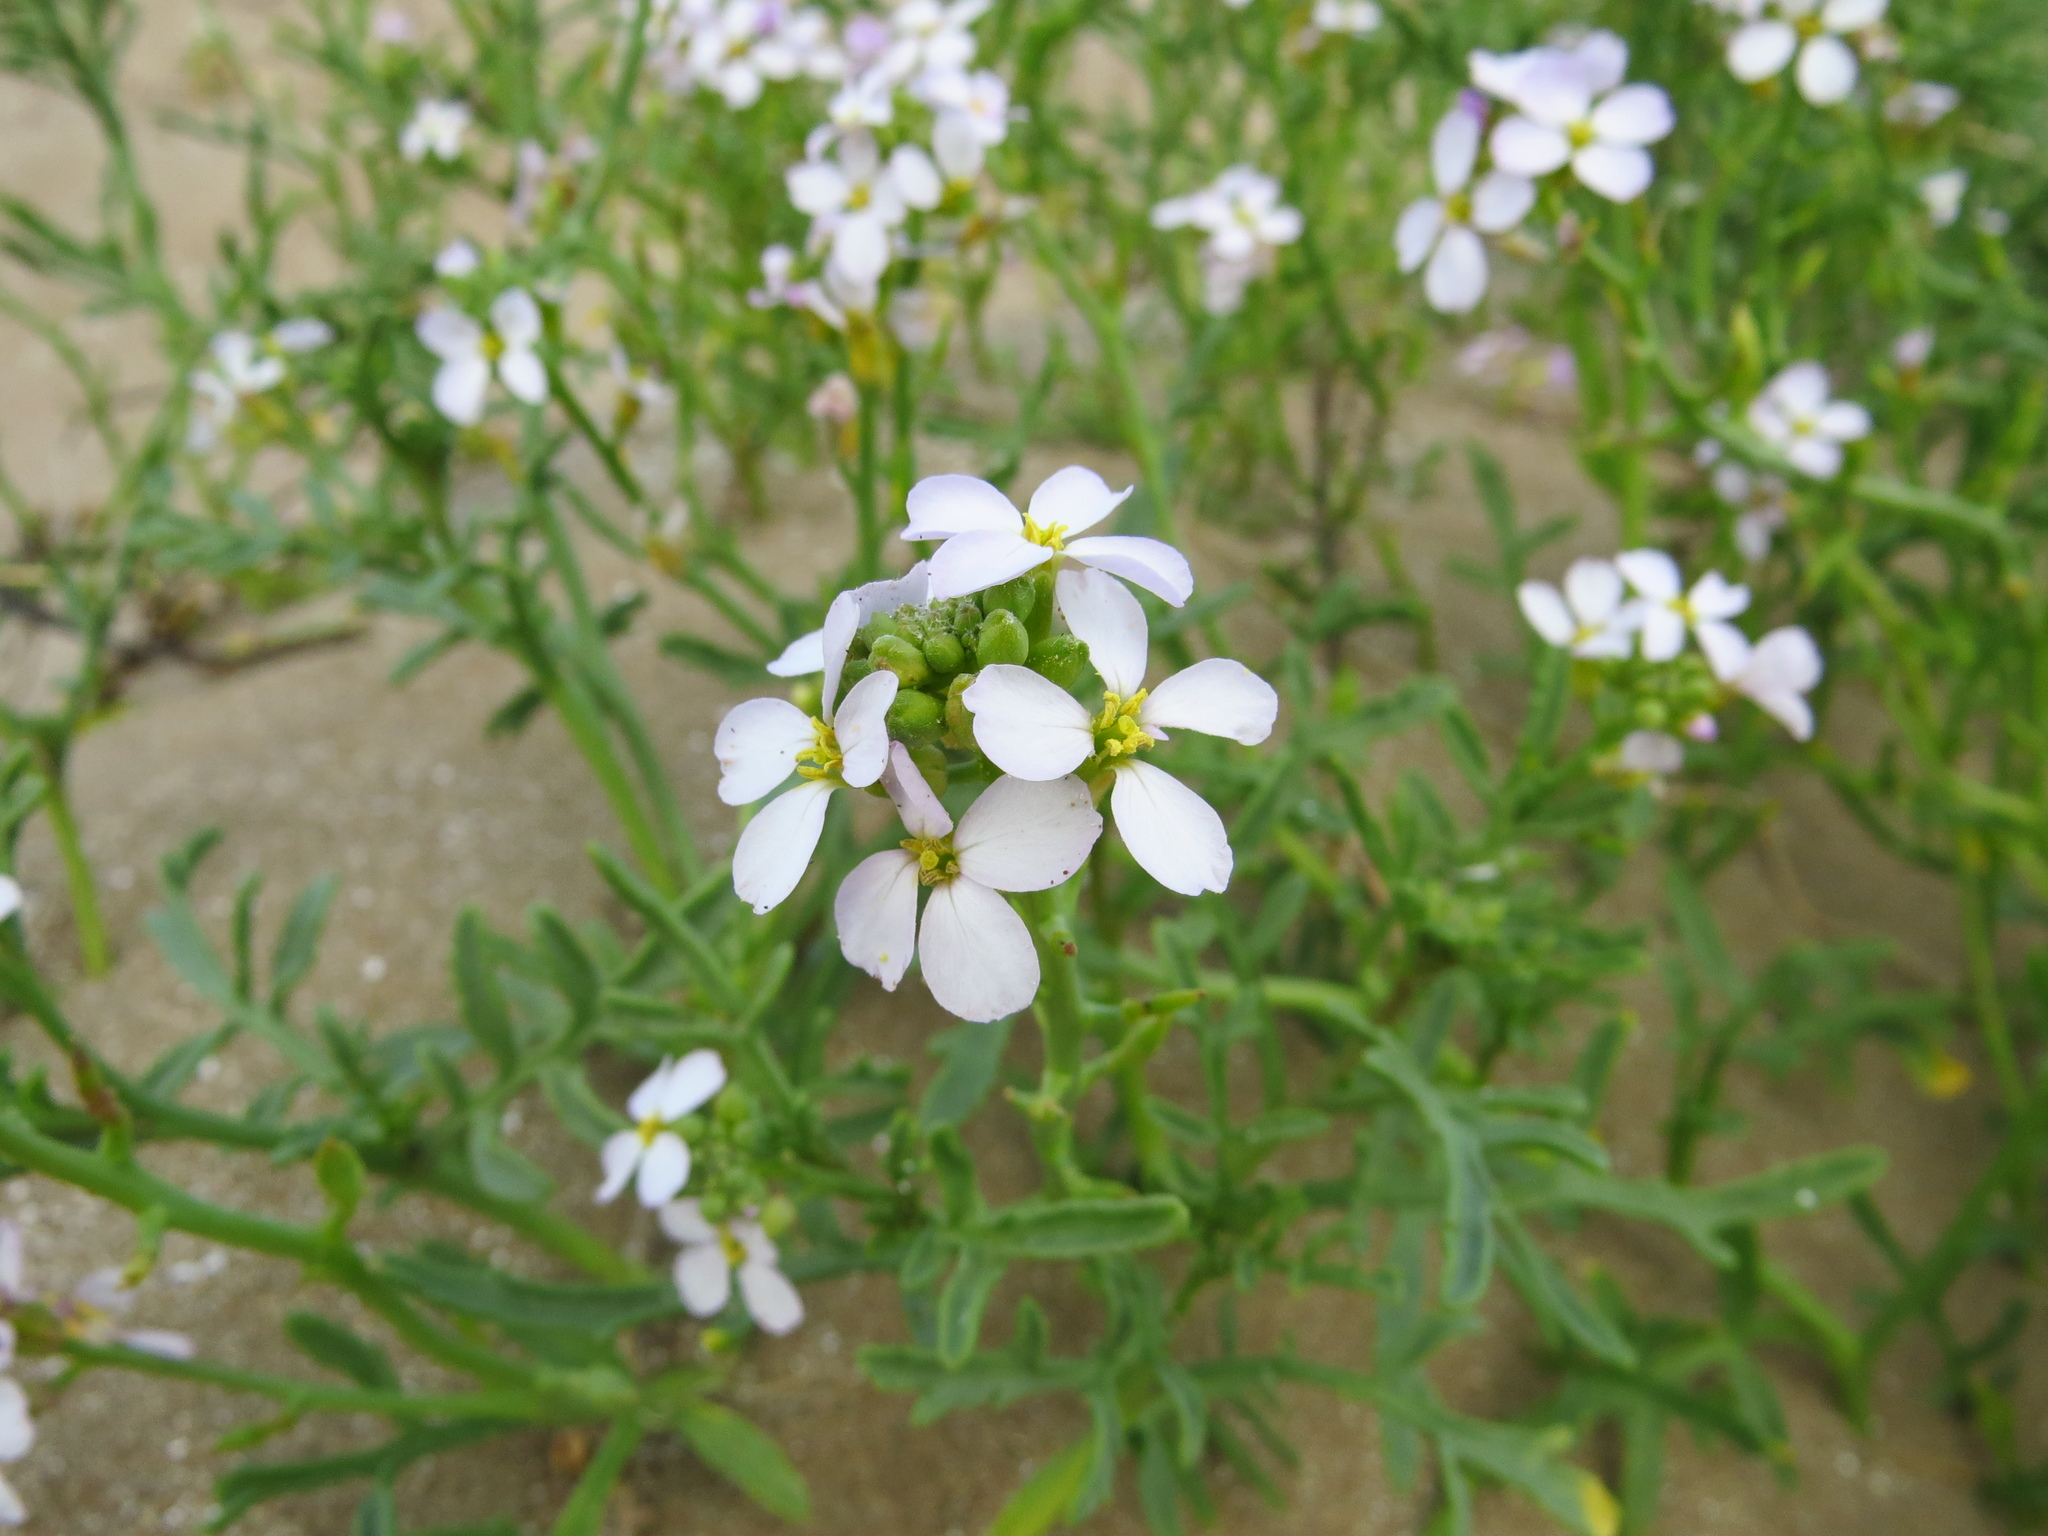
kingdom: Plantae
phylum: Tracheophyta
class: Magnoliopsida
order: Brassicales
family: Brassicaceae
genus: Diplotaxis
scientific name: Diplotaxis erucoides
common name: White rocket
